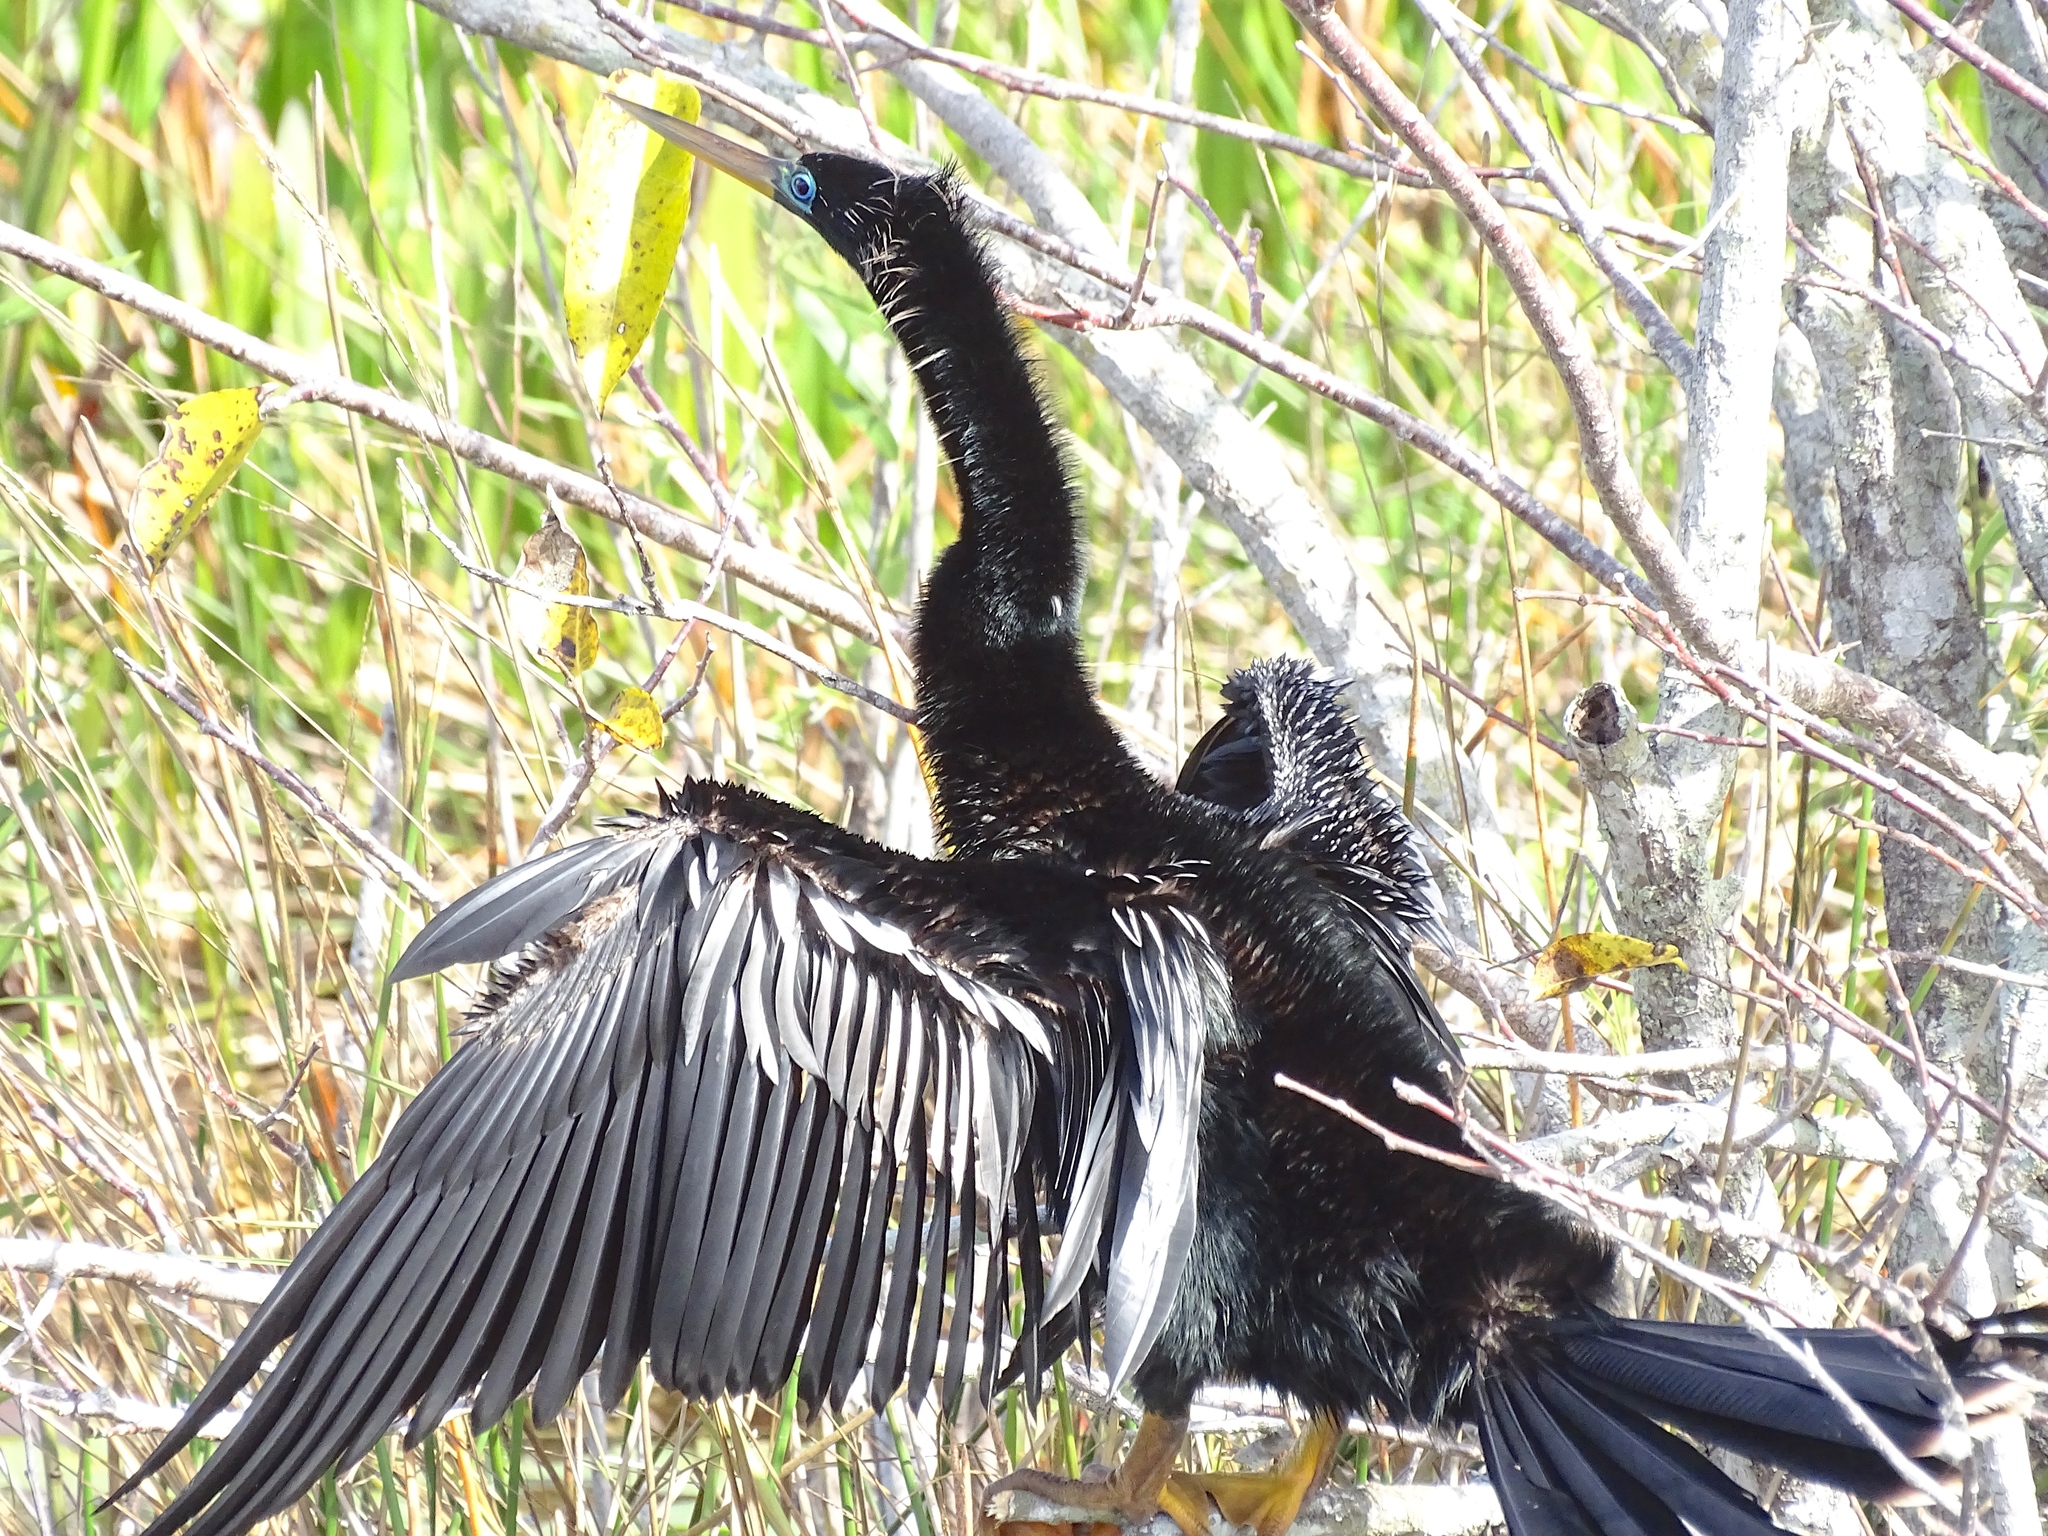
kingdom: Animalia
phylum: Chordata
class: Aves
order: Suliformes
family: Anhingidae
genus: Anhinga
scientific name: Anhinga anhinga
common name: Anhinga
